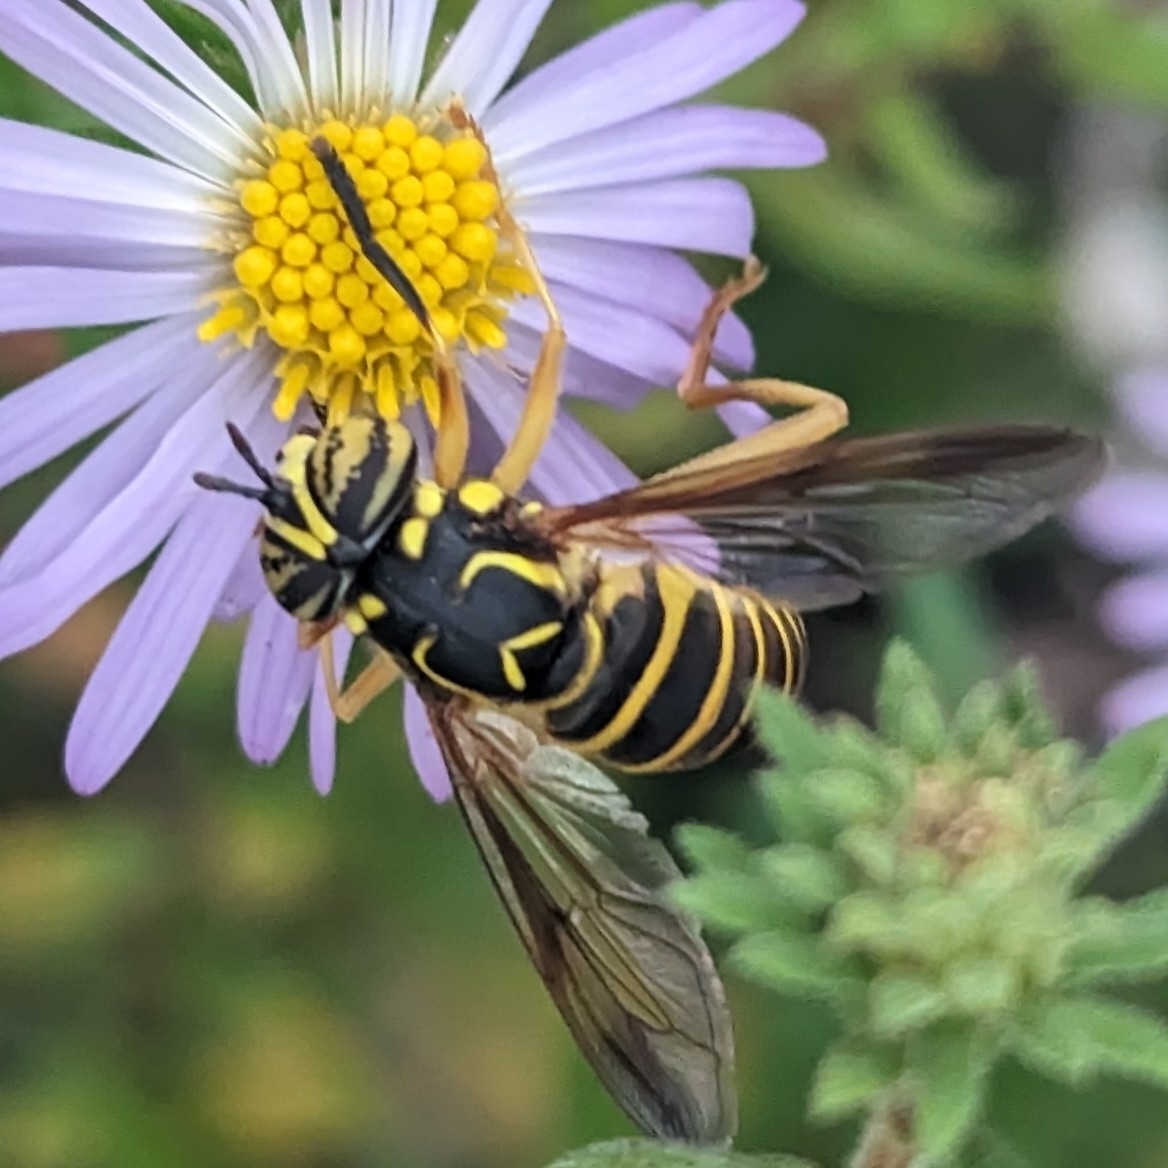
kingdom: Animalia
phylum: Arthropoda
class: Insecta
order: Diptera
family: Syrphidae
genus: Spilomyia
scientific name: Spilomyia longicornis
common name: Eastern hornet fly
